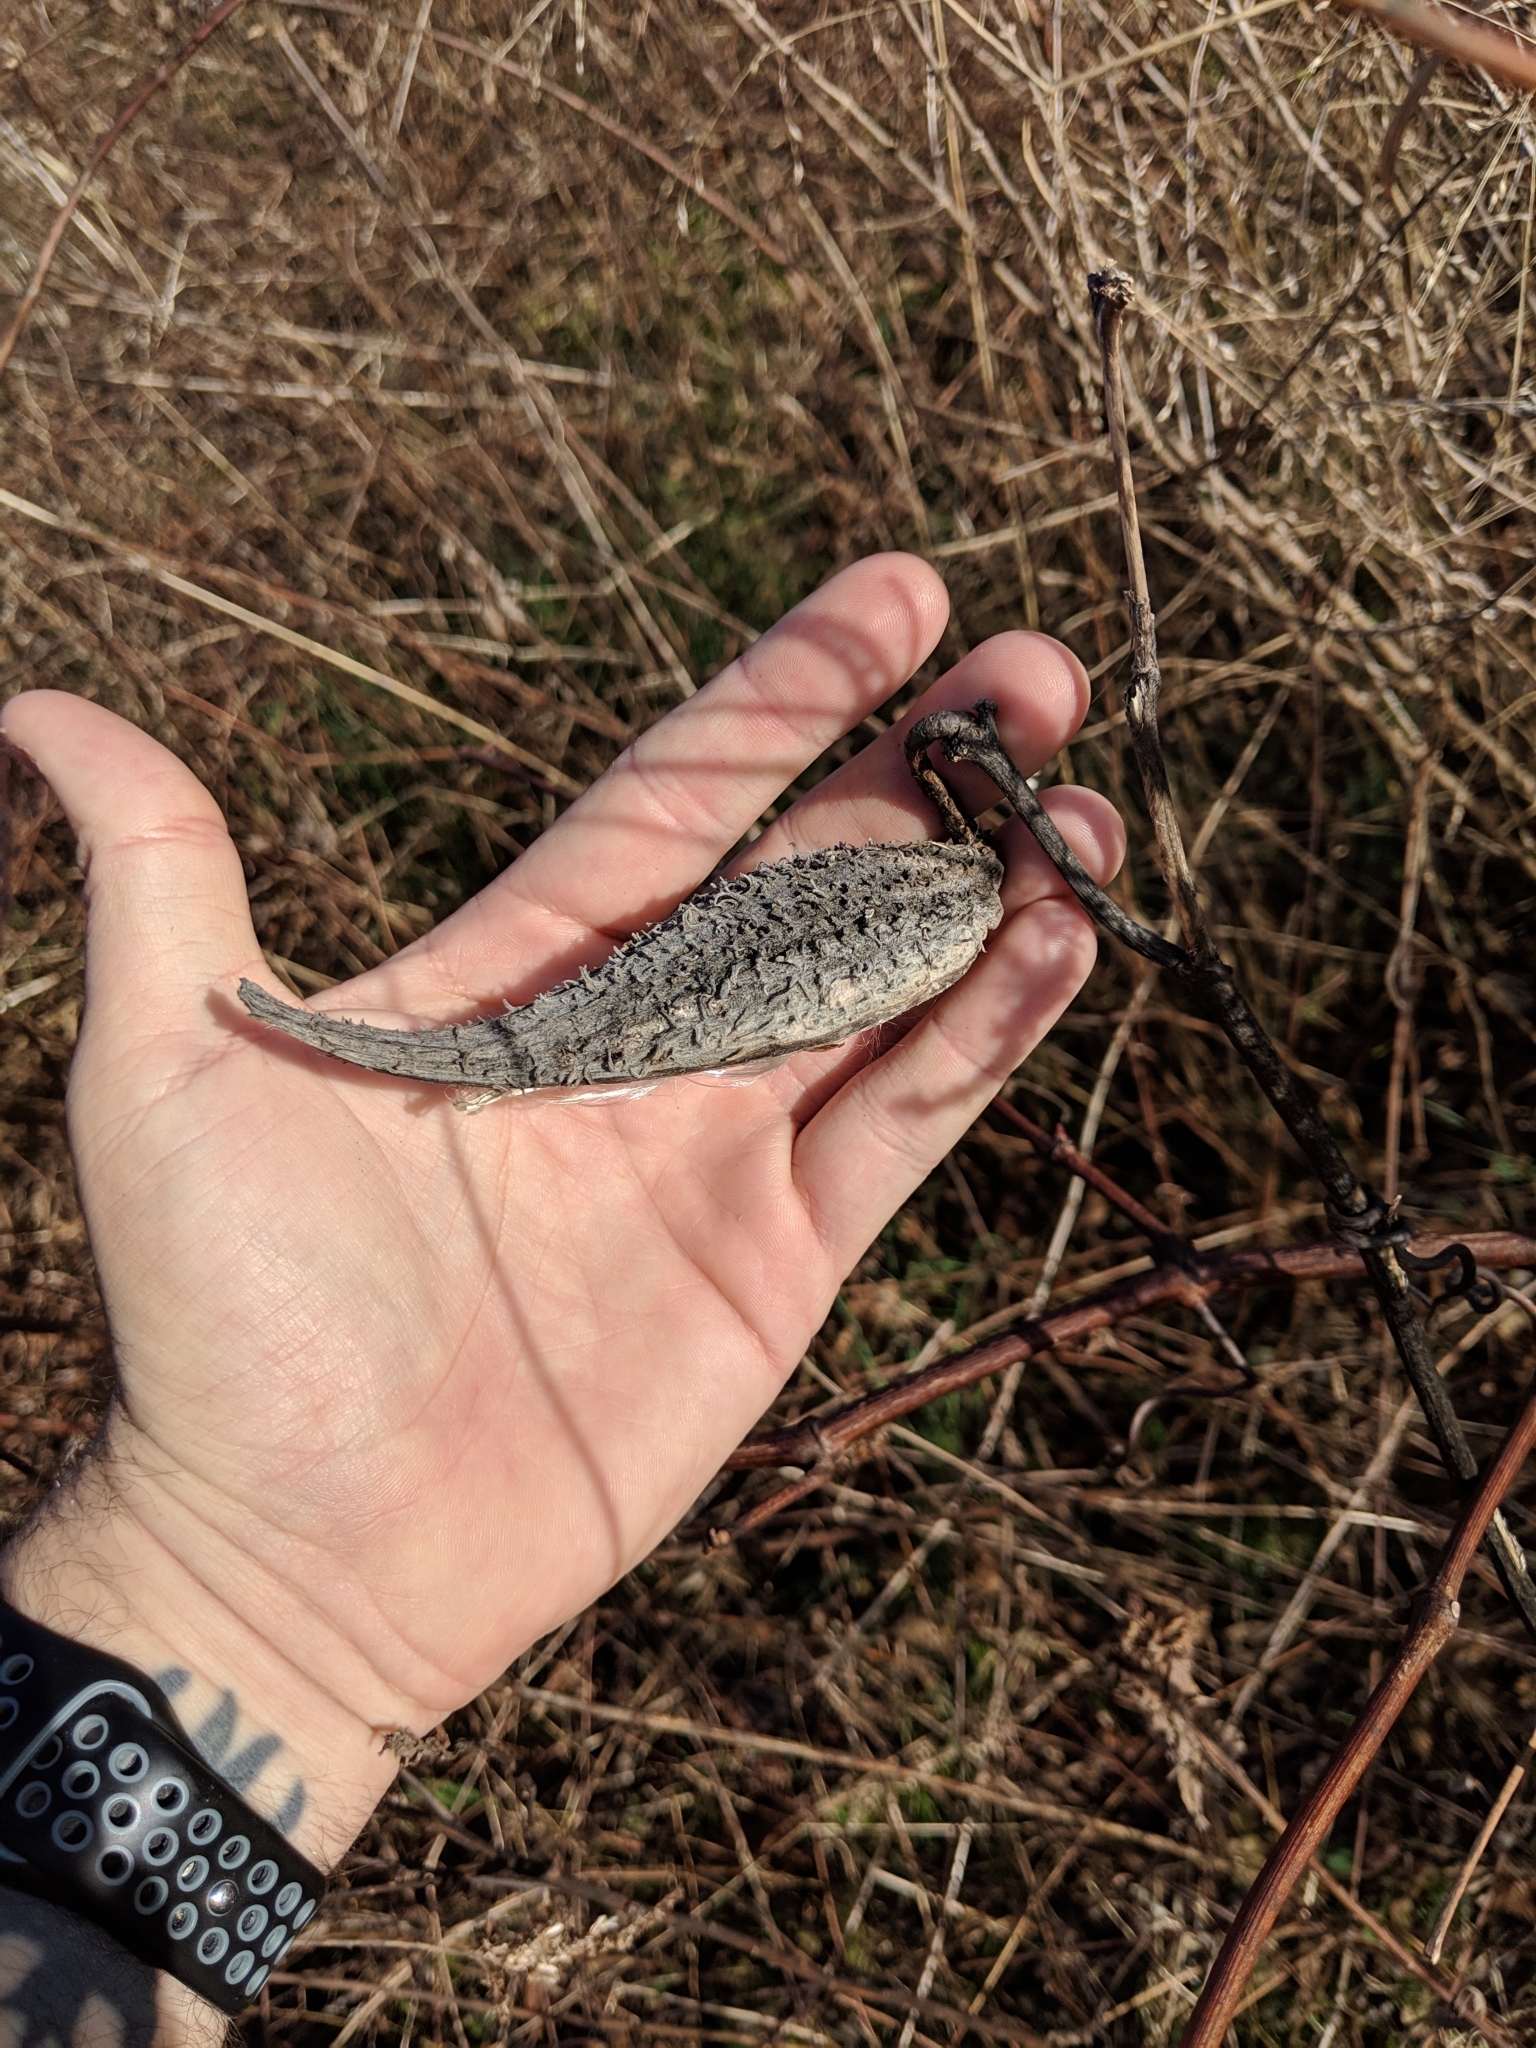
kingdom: Plantae
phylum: Tracheophyta
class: Magnoliopsida
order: Gentianales
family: Apocynaceae
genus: Asclepias
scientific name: Asclepias syriaca
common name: Common milkweed
